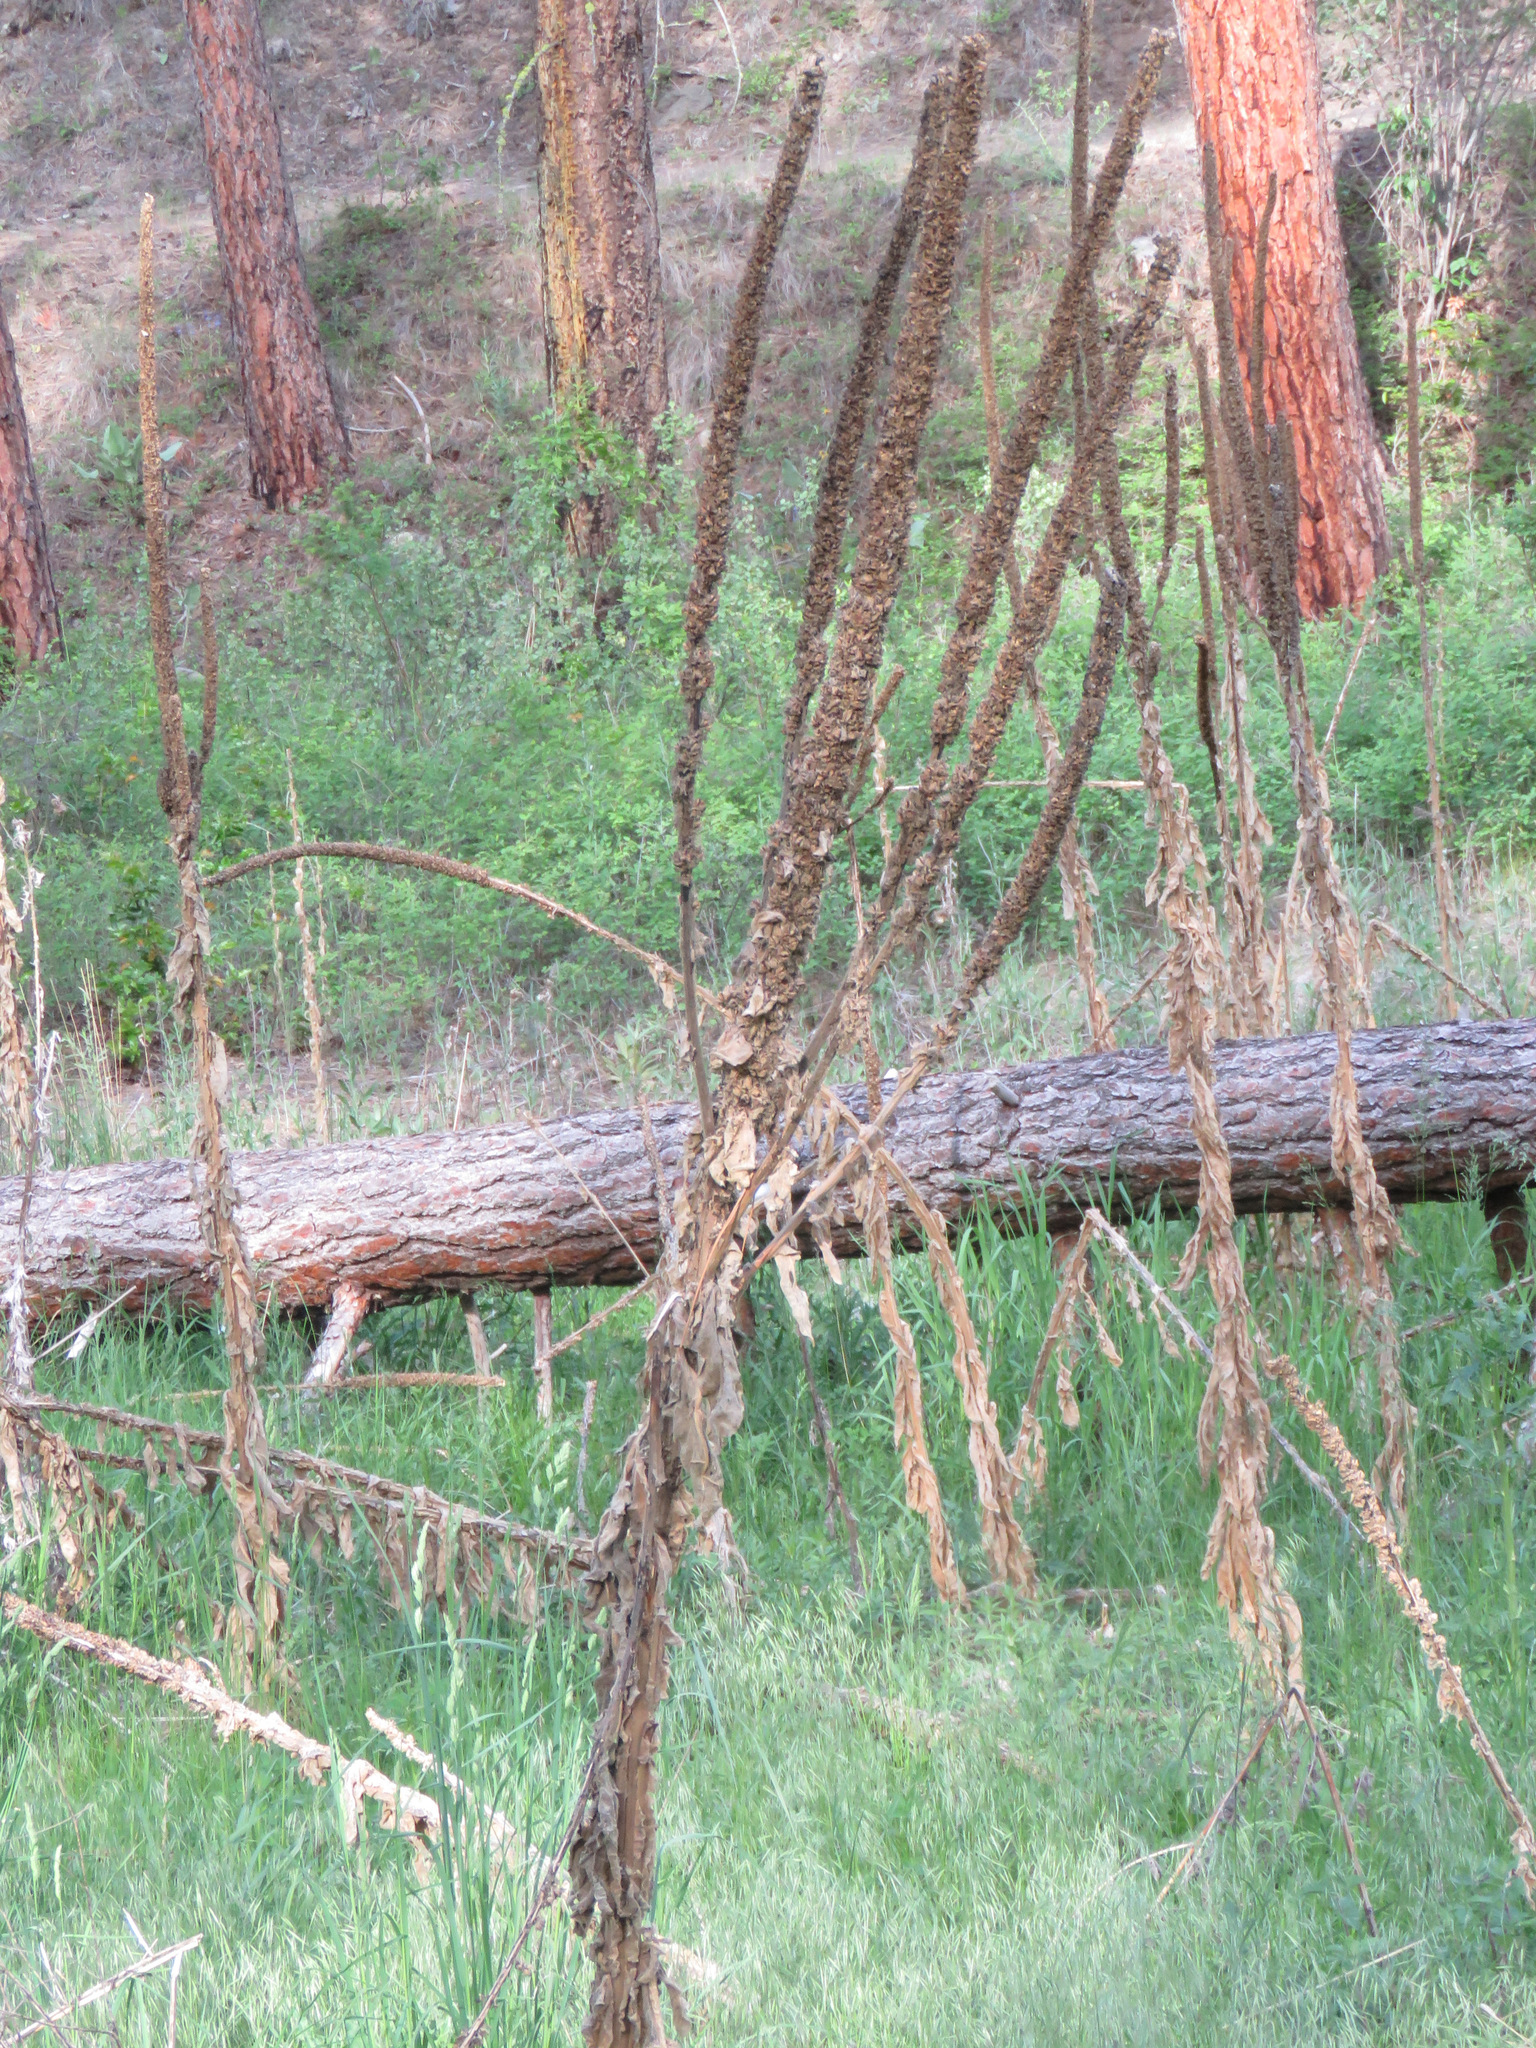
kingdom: Plantae
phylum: Tracheophyta
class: Magnoliopsida
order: Lamiales
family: Scrophulariaceae
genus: Verbascum
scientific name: Verbascum thapsus
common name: Common mullein
